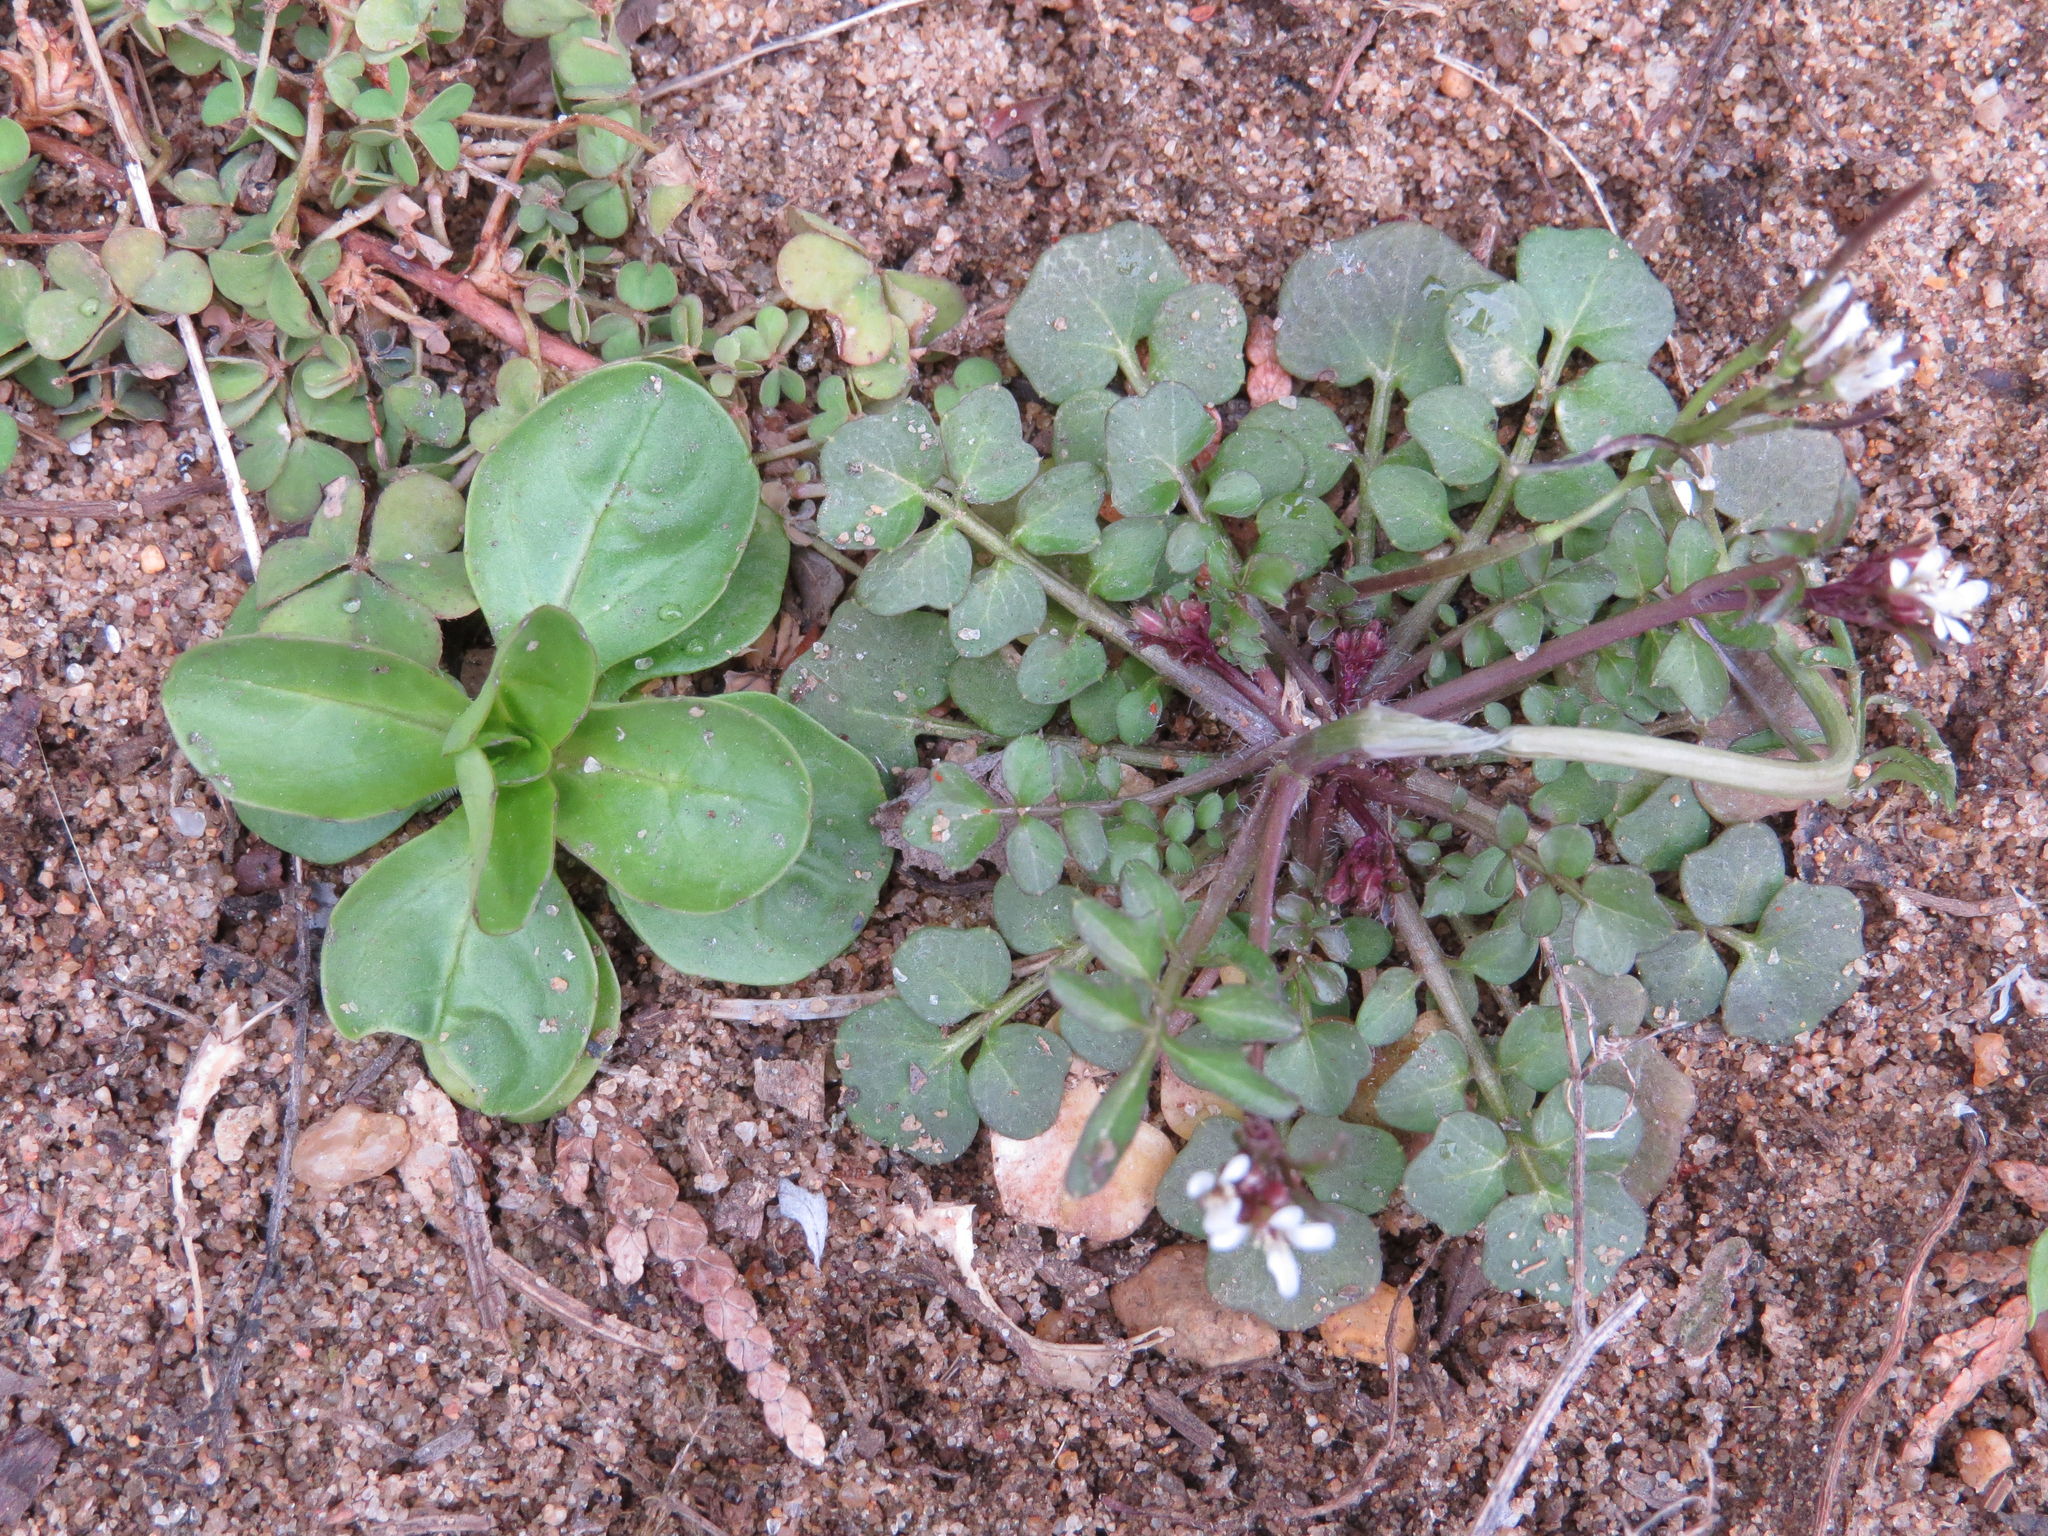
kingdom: Plantae
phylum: Tracheophyta
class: Magnoliopsida
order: Dipsacales
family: Caprifoliaceae
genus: Valerianella
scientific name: Valerianella locusta
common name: Common cornsalad
